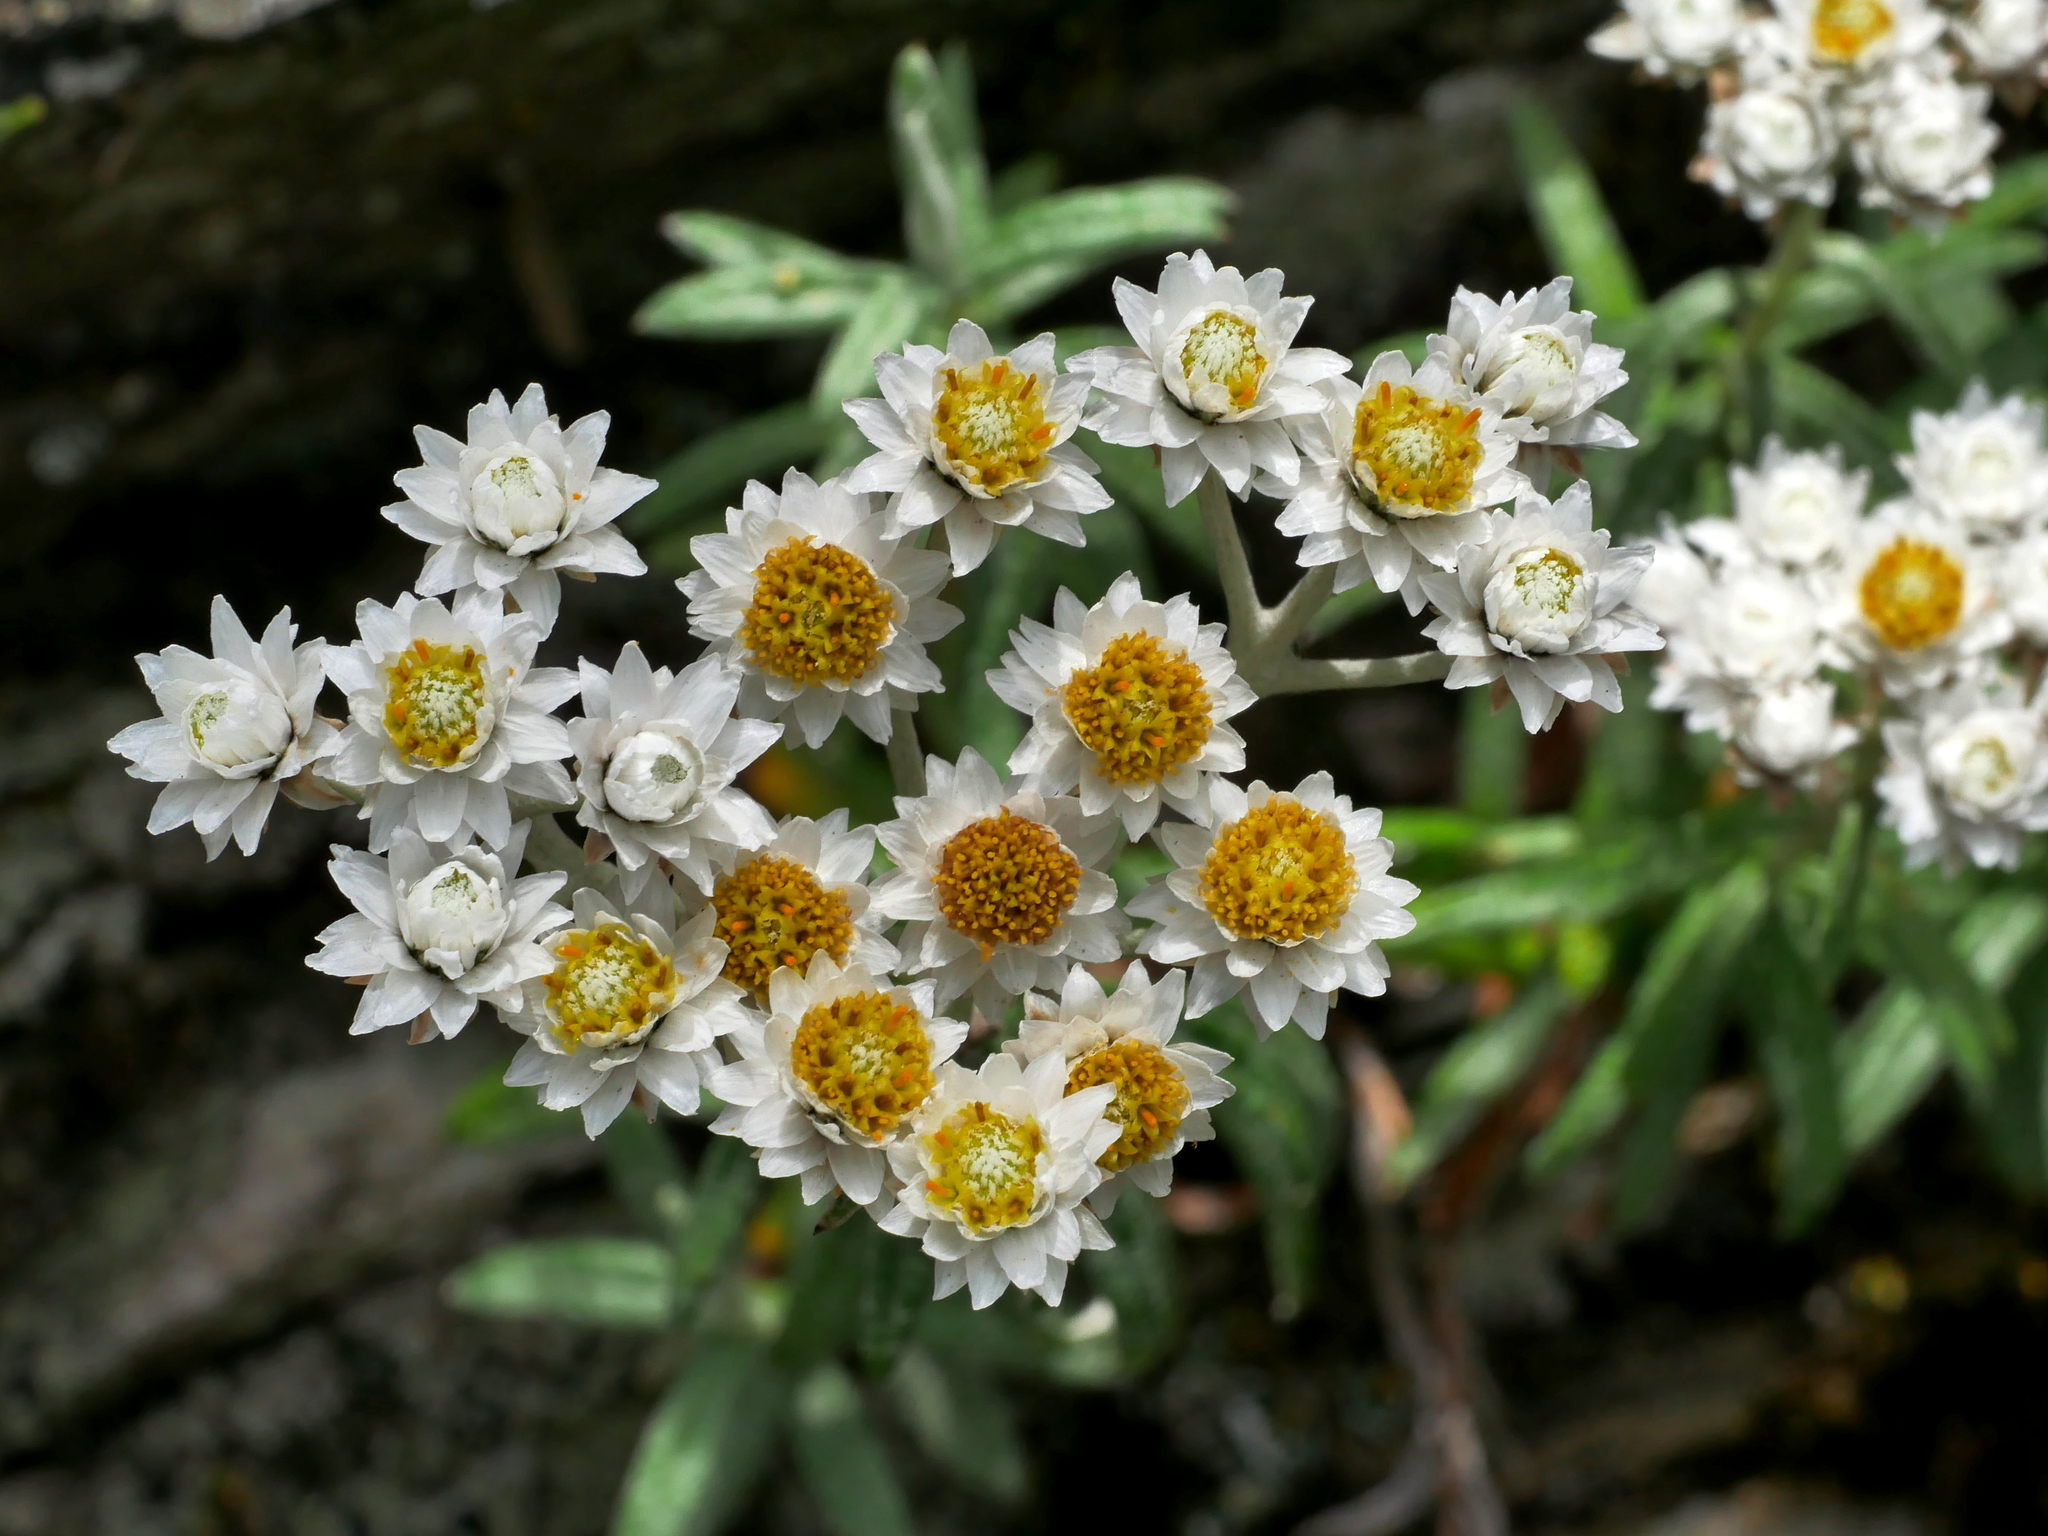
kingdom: Plantae
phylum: Tracheophyta
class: Magnoliopsida
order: Asterales
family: Asteraceae
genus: Anaphalis
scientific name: Anaphalis morrisonicola
